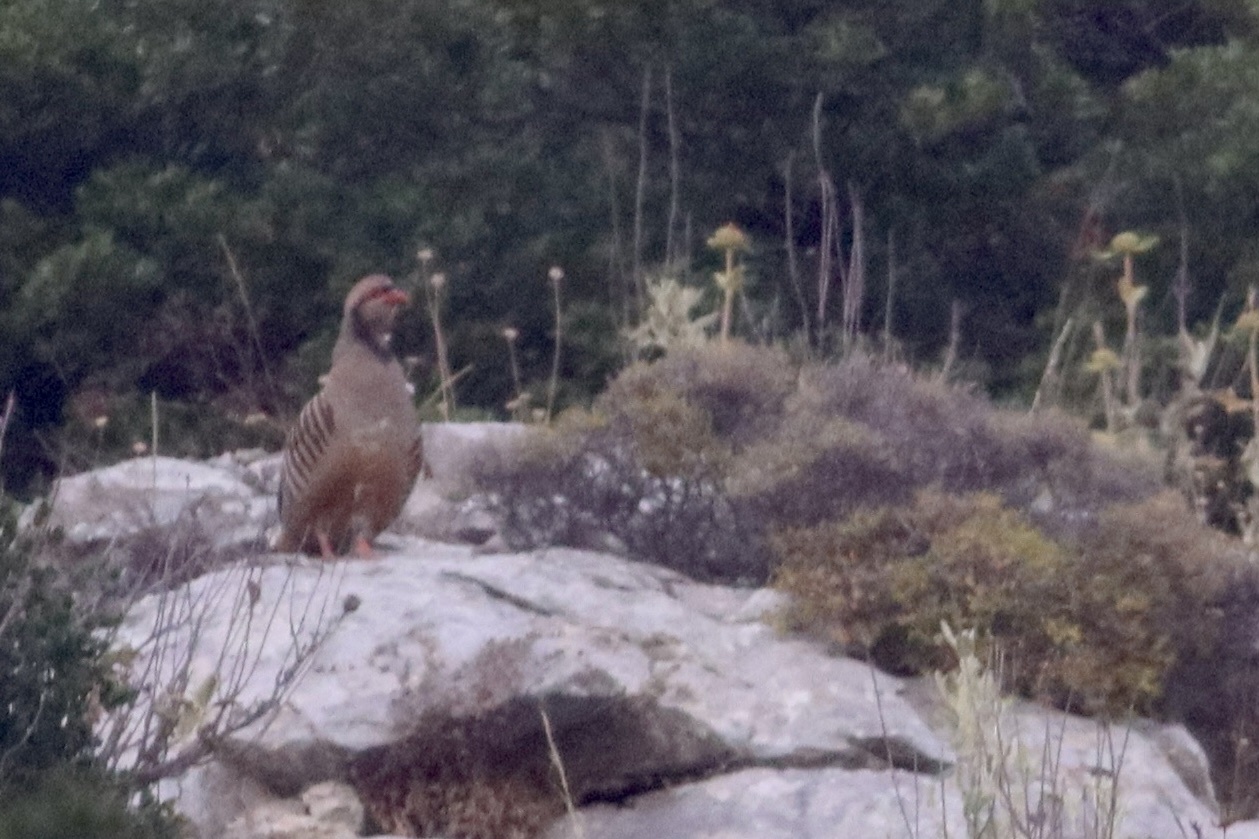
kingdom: Animalia
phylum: Chordata
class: Aves
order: Galliformes
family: Phasianidae
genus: Alectoris
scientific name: Alectoris chukar
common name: Chukar
